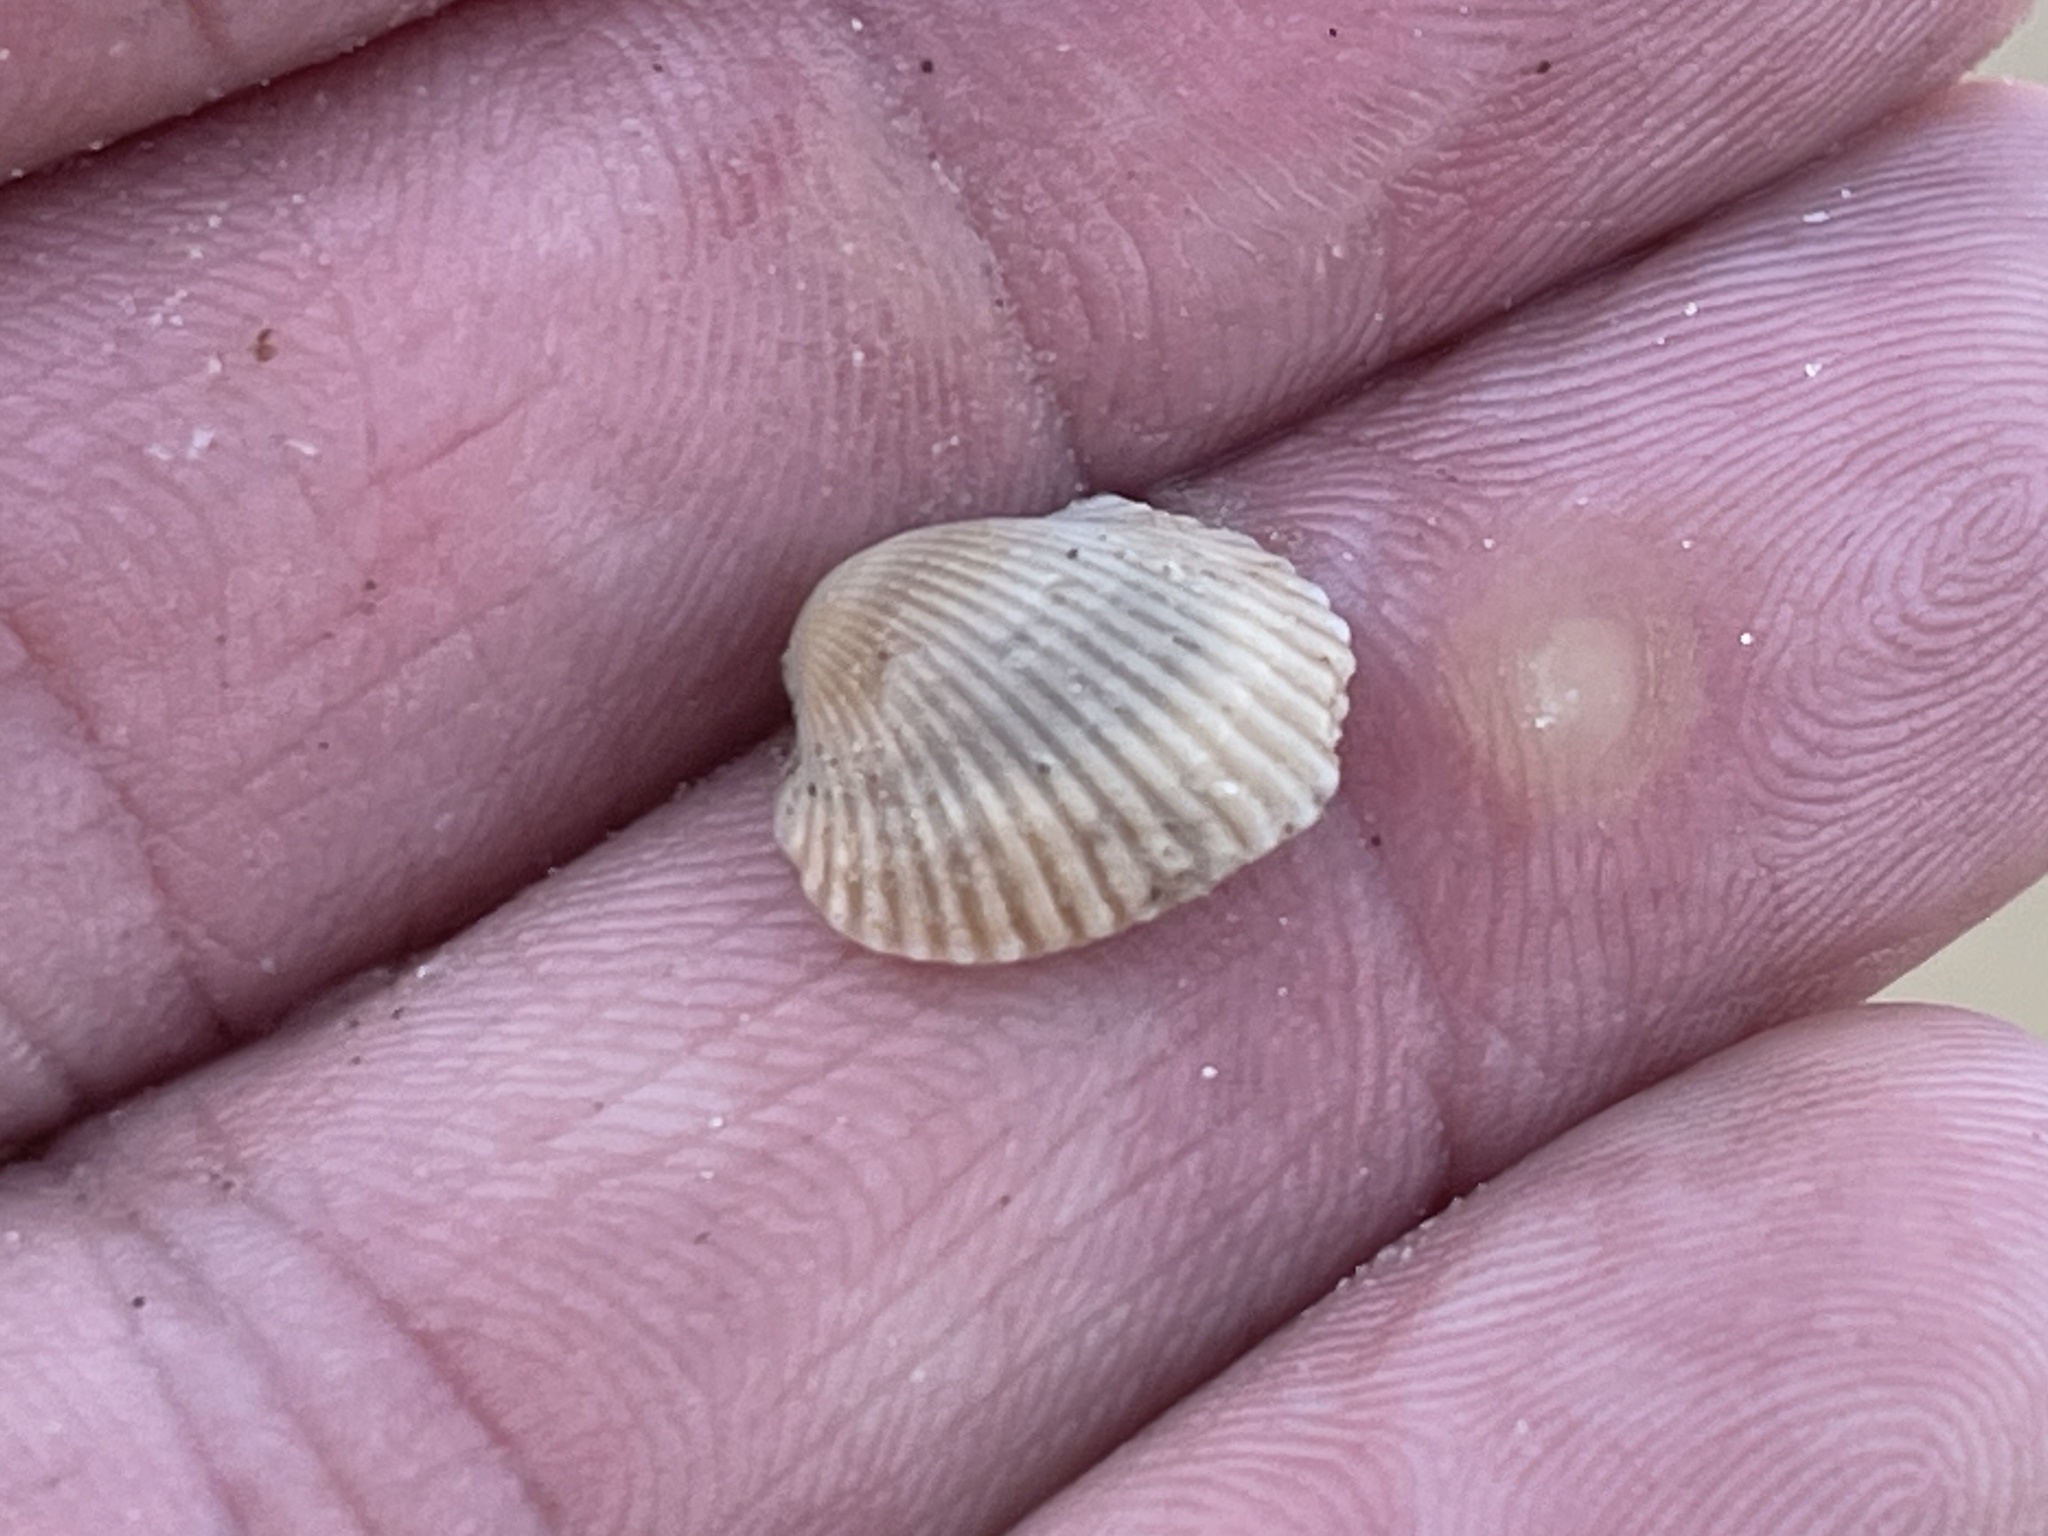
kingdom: Animalia
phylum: Mollusca
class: Bivalvia
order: Arcida
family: Arcidae
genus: Lunarca
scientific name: Lunarca ovalis
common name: Blood ark
